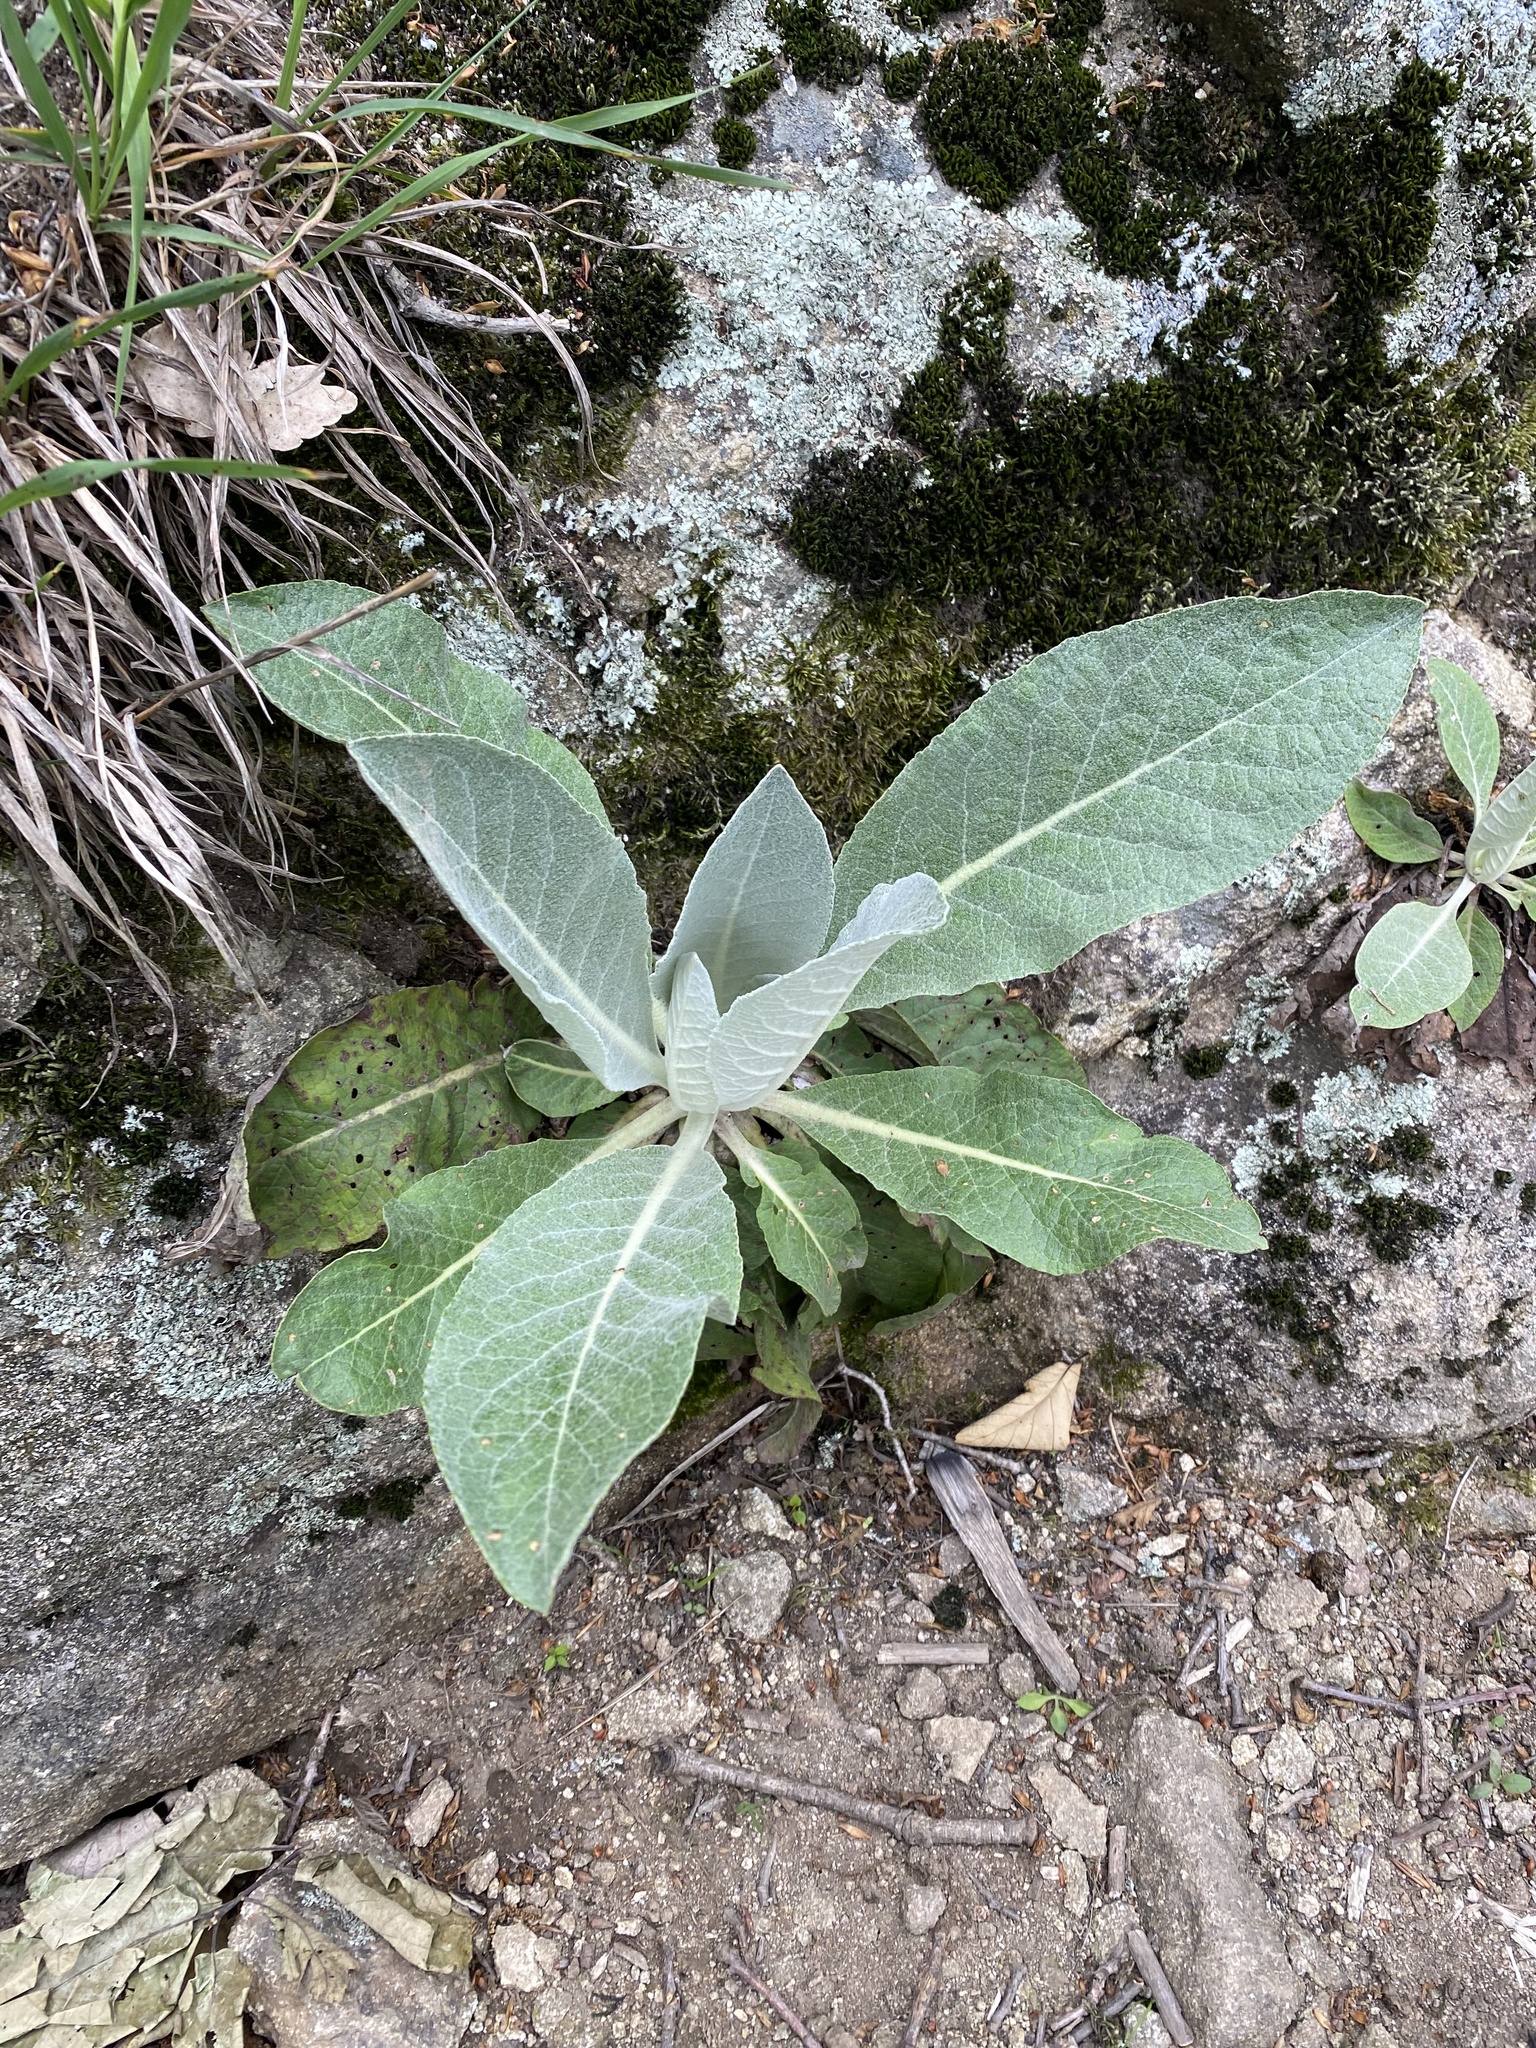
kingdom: Plantae
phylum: Tracheophyta
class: Magnoliopsida
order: Lamiales
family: Scrophulariaceae
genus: Verbascum
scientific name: Verbascum gnaphalodes
